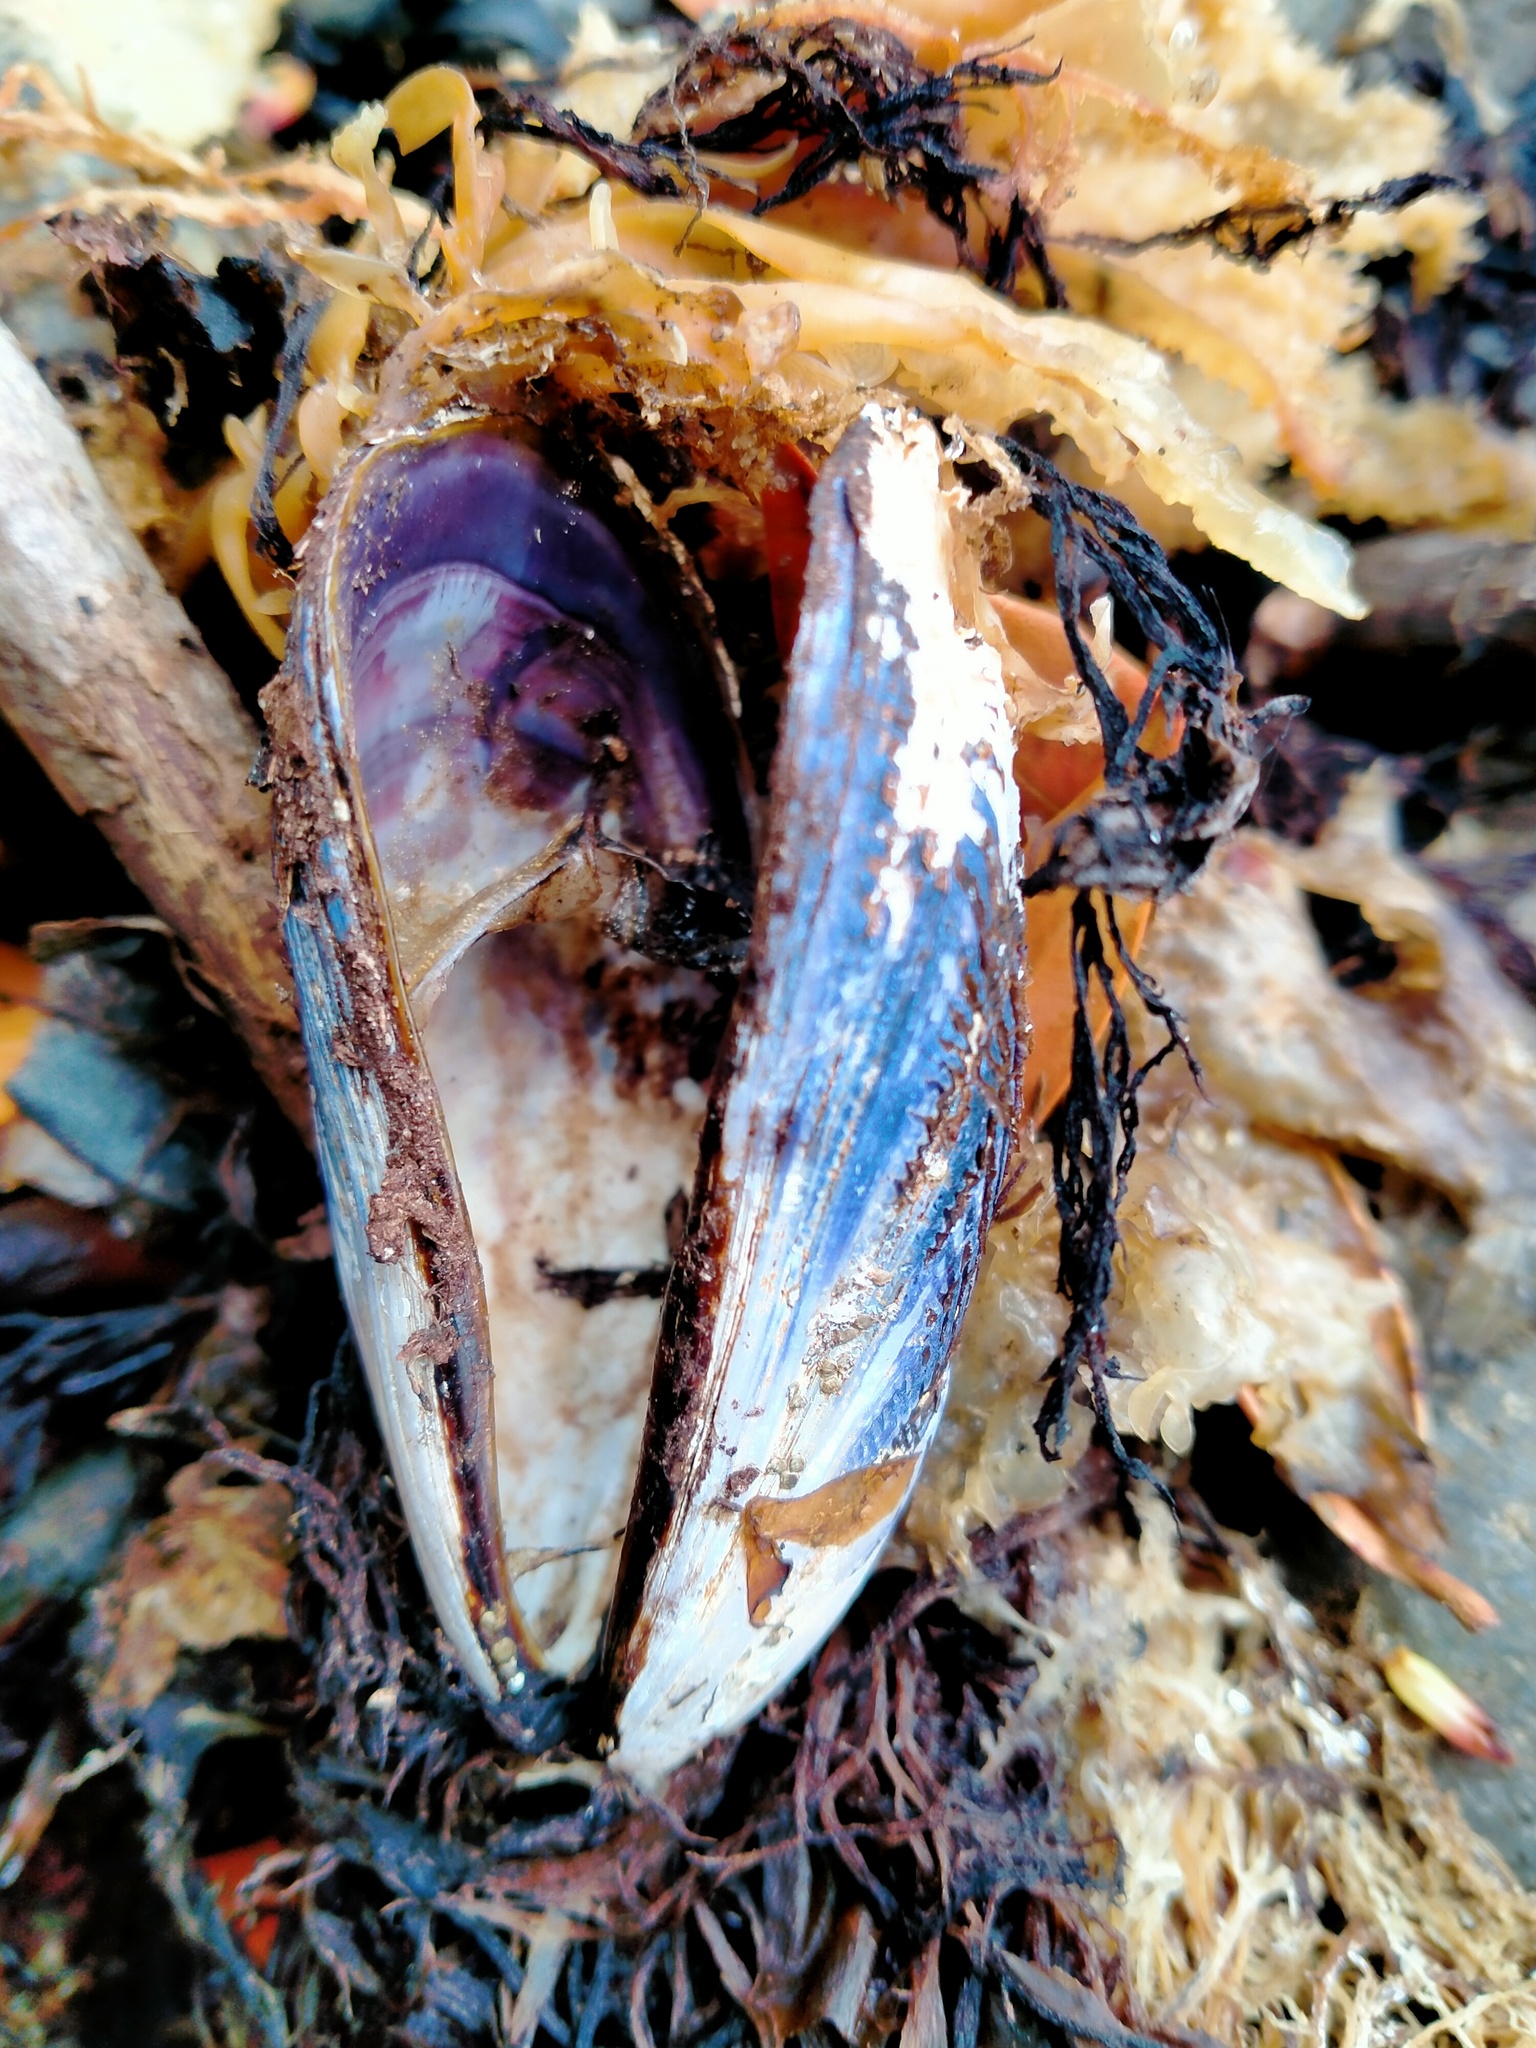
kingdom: Animalia
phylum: Mollusca
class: Bivalvia
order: Mytilida
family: Mytilidae
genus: Aulacomya
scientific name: Aulacomya maoriana
